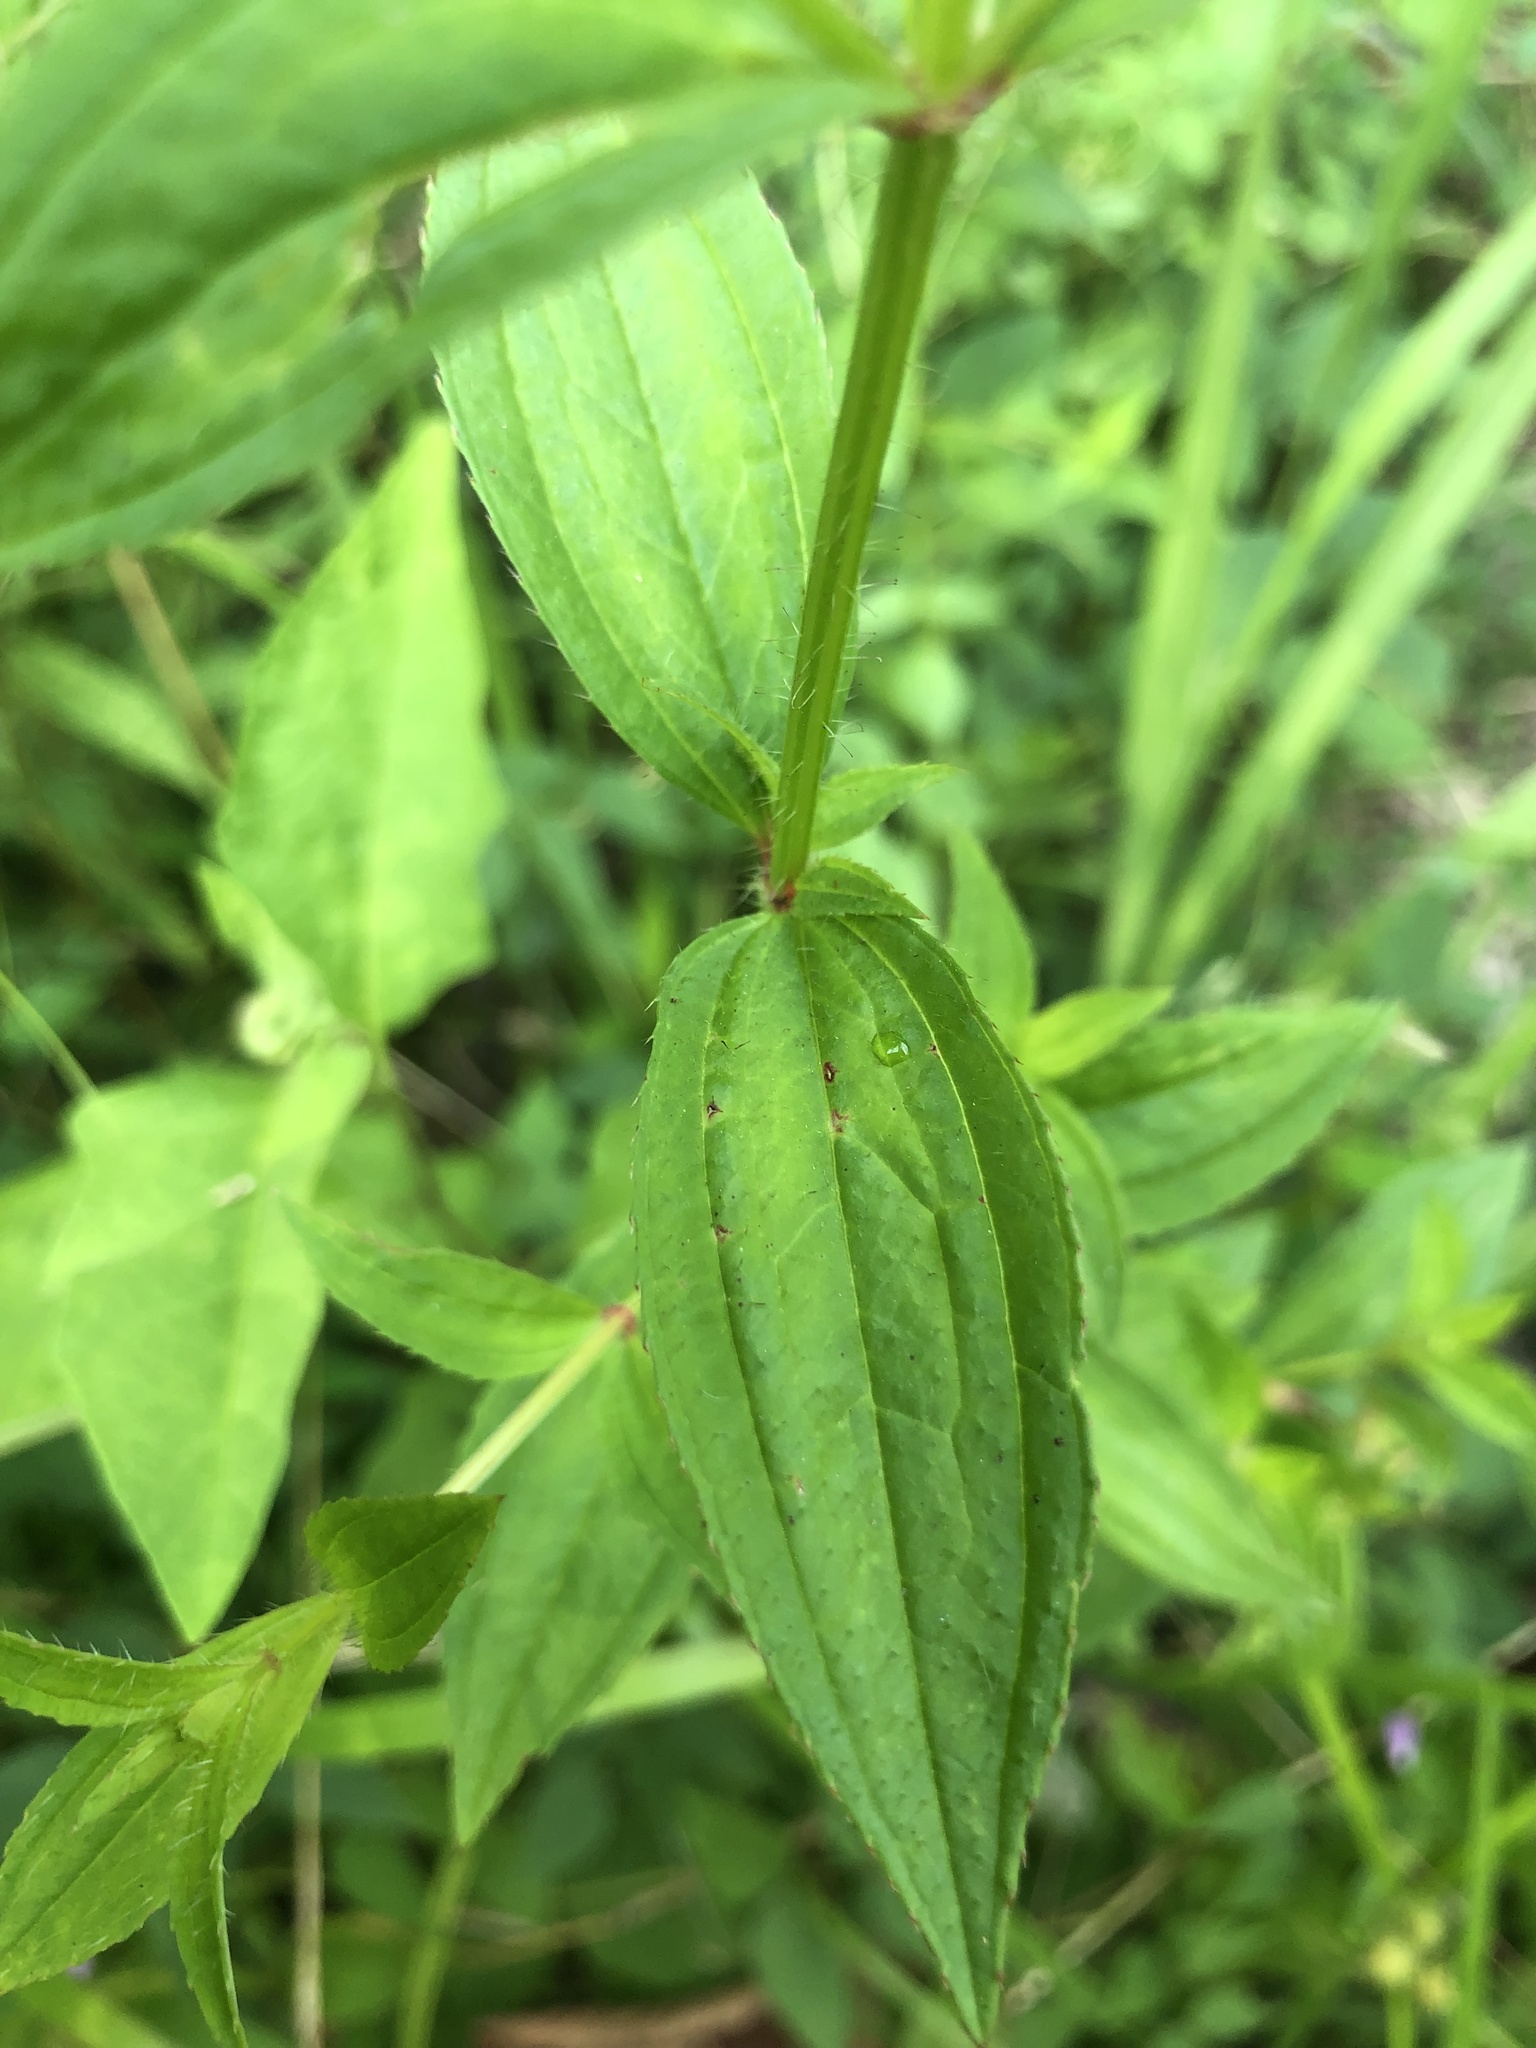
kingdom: Plantae
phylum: Tracheophyta
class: Magnoliopsida
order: Myrtales
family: Melastomataceae
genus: Rhexia
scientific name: Rhexia virginica
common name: Common meadow beauty
